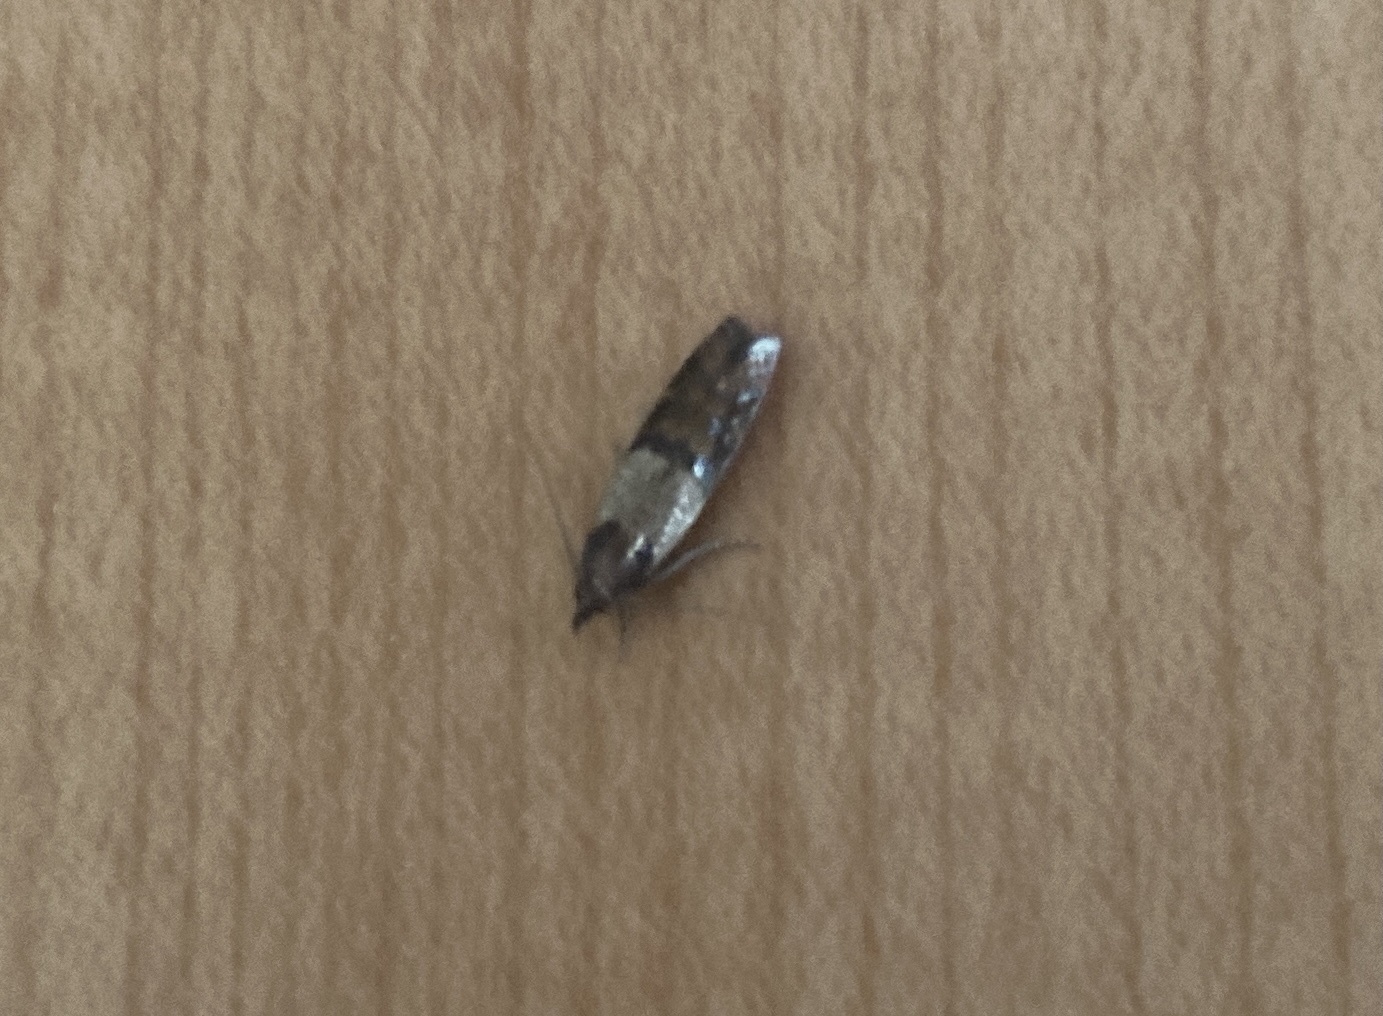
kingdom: Animalia
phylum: Arthropoda
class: Insecta
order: Lepidoptera
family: Pyralidae
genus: Plodia
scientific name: Plodia interpunctella
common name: Indian meal moth
